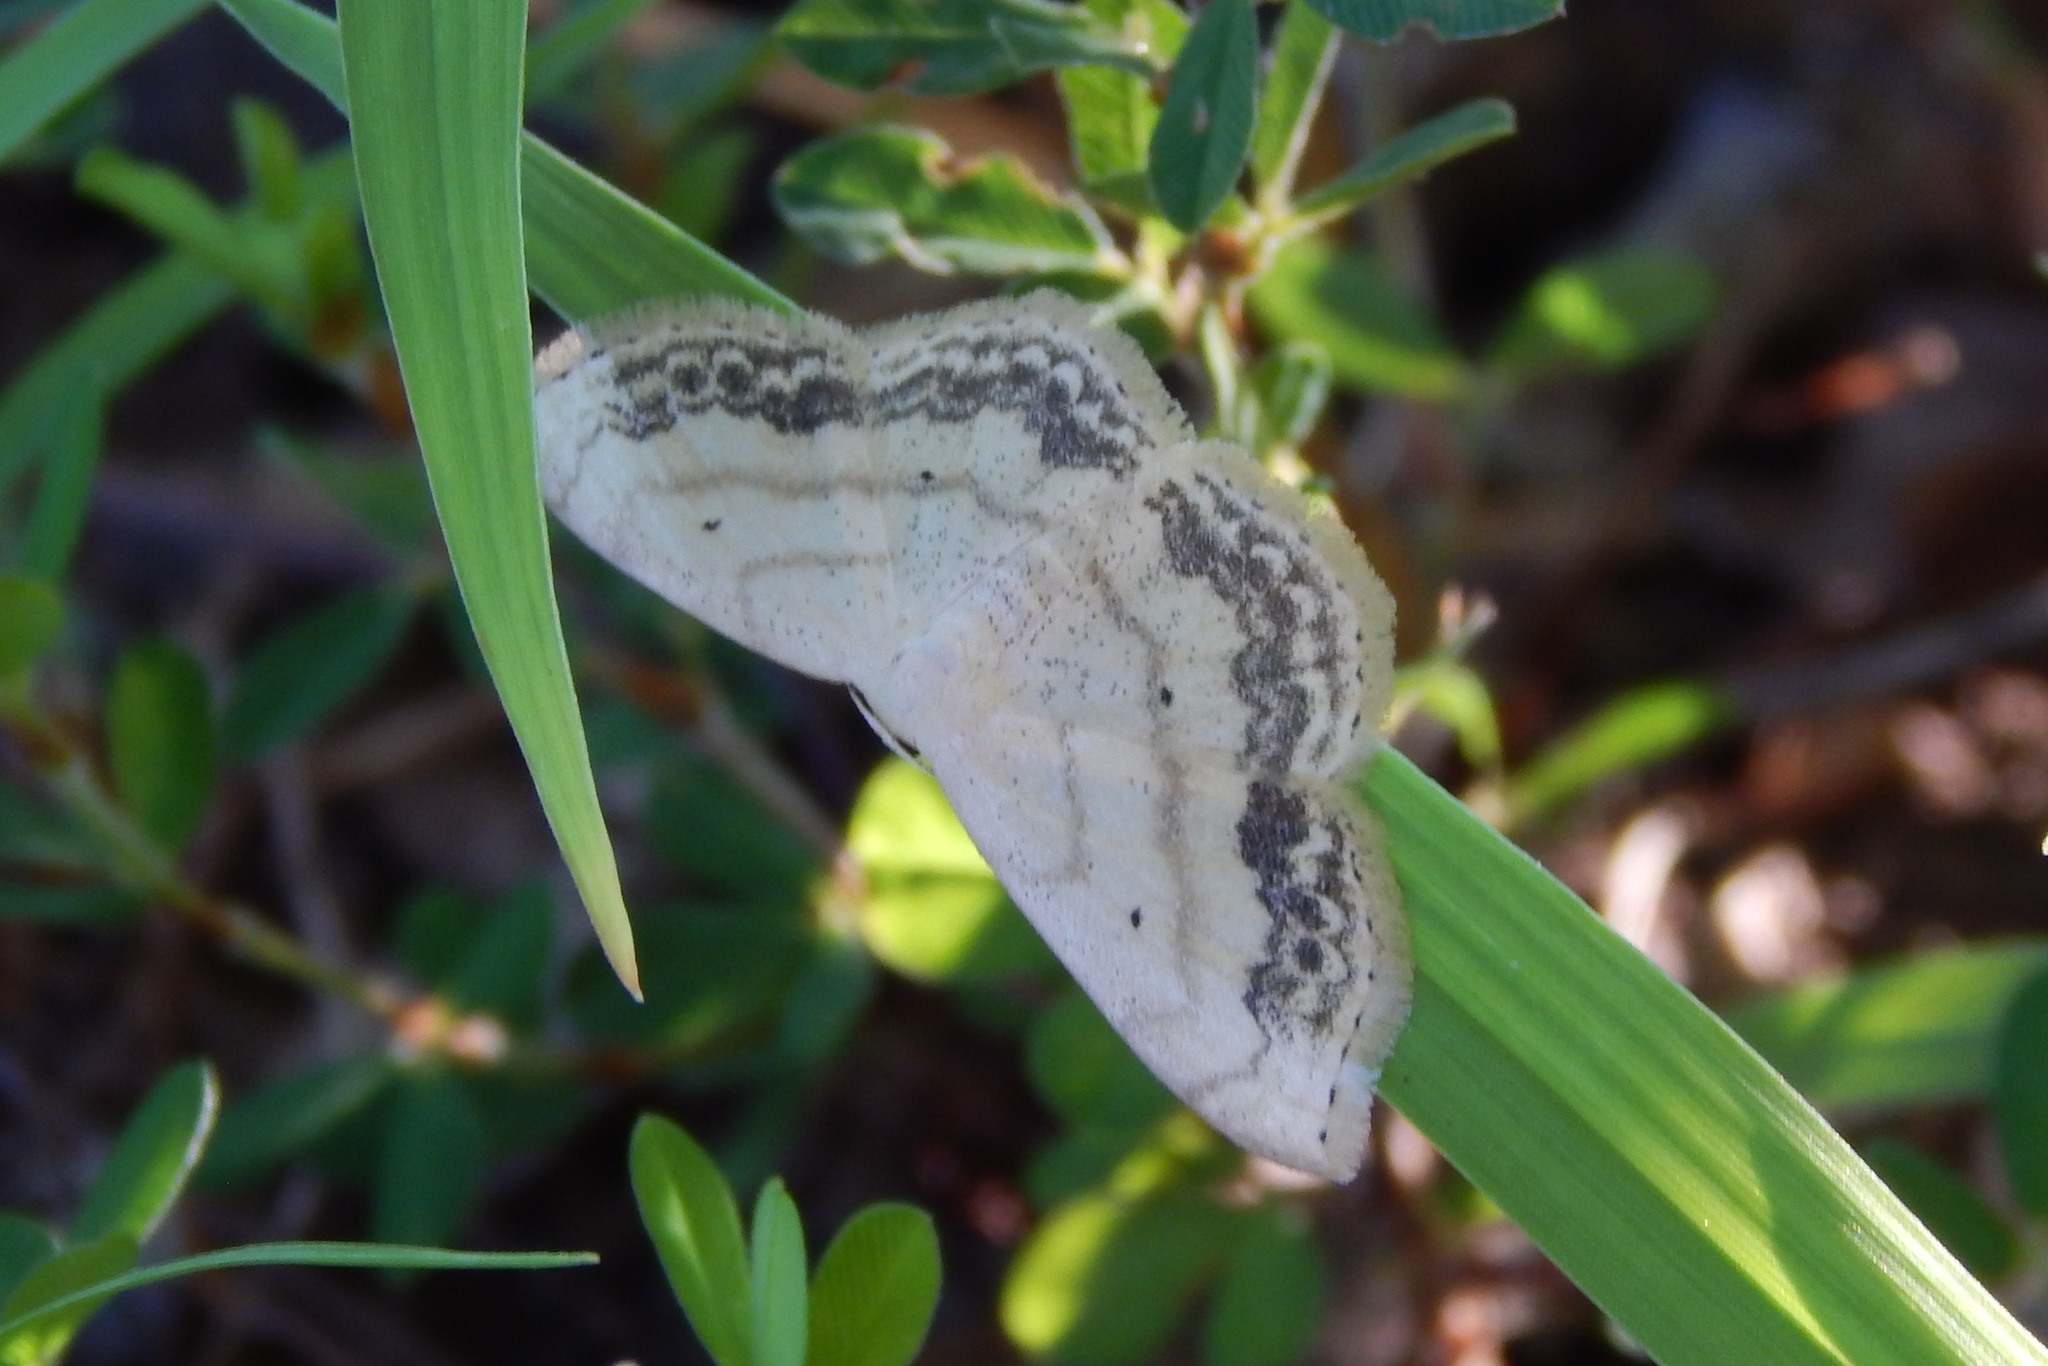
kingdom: Animalia
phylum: Arthropoda
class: Insecta
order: Lepidoptera
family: Geometridae
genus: Scopula
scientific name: Scopula limboundata
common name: Large lace border
